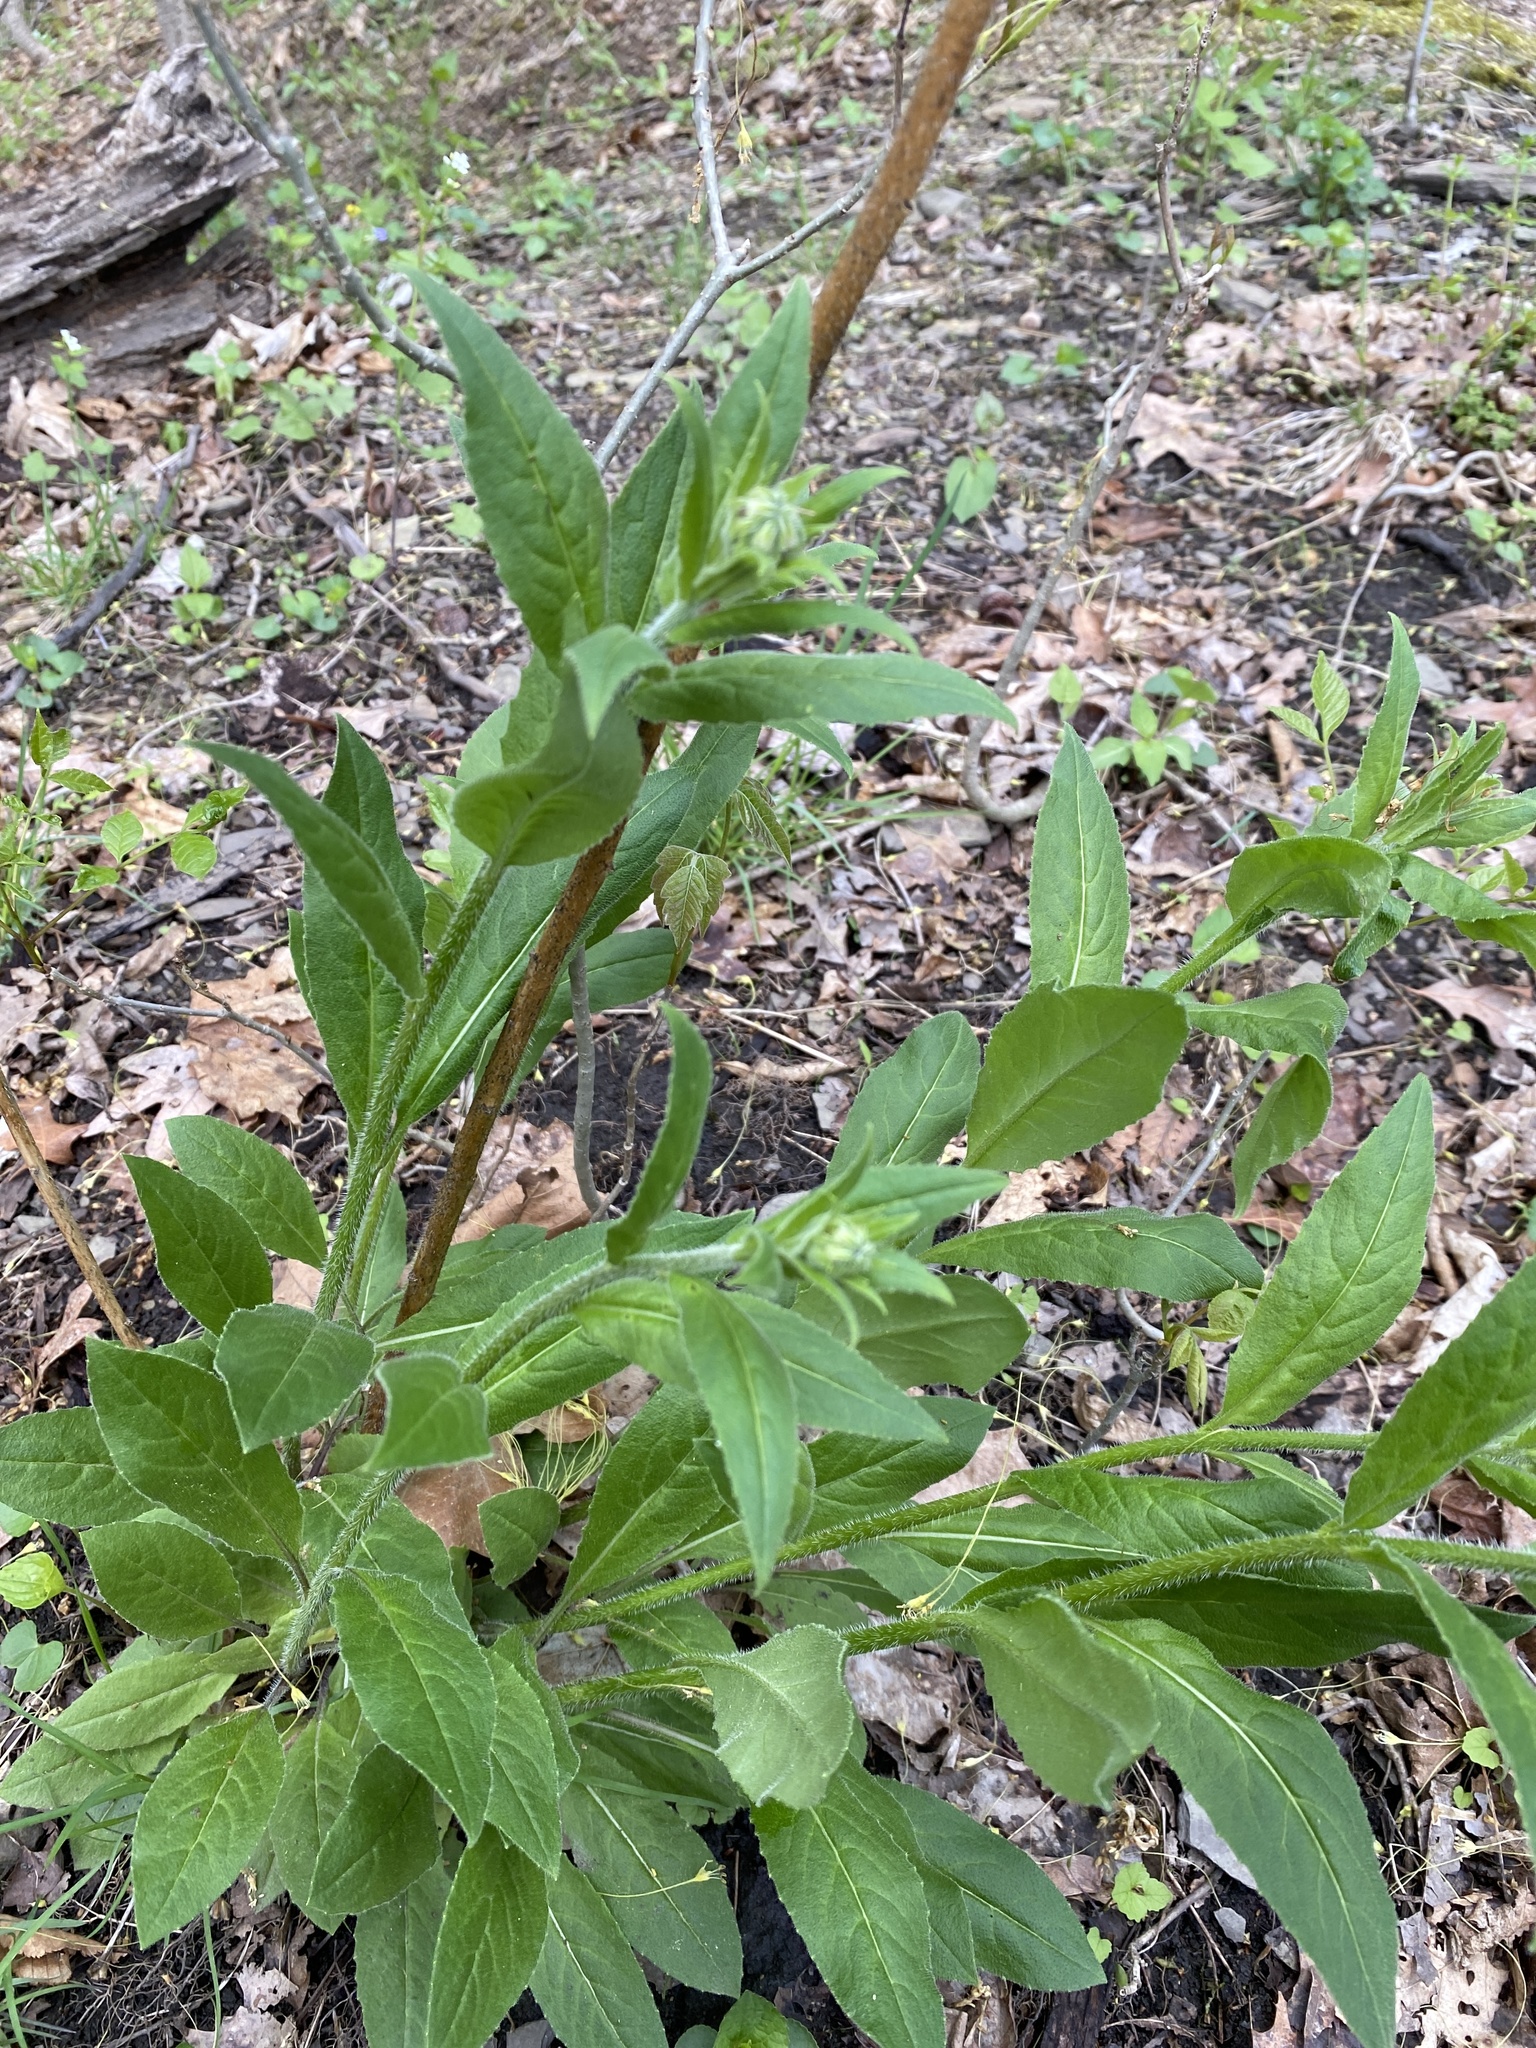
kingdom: Plantae
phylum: Tracheophyta
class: Magnoliopsida
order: Brassicales
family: Brassicaceae
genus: Hesperis
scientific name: Hesperis matronalis
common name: Dame's-violet
